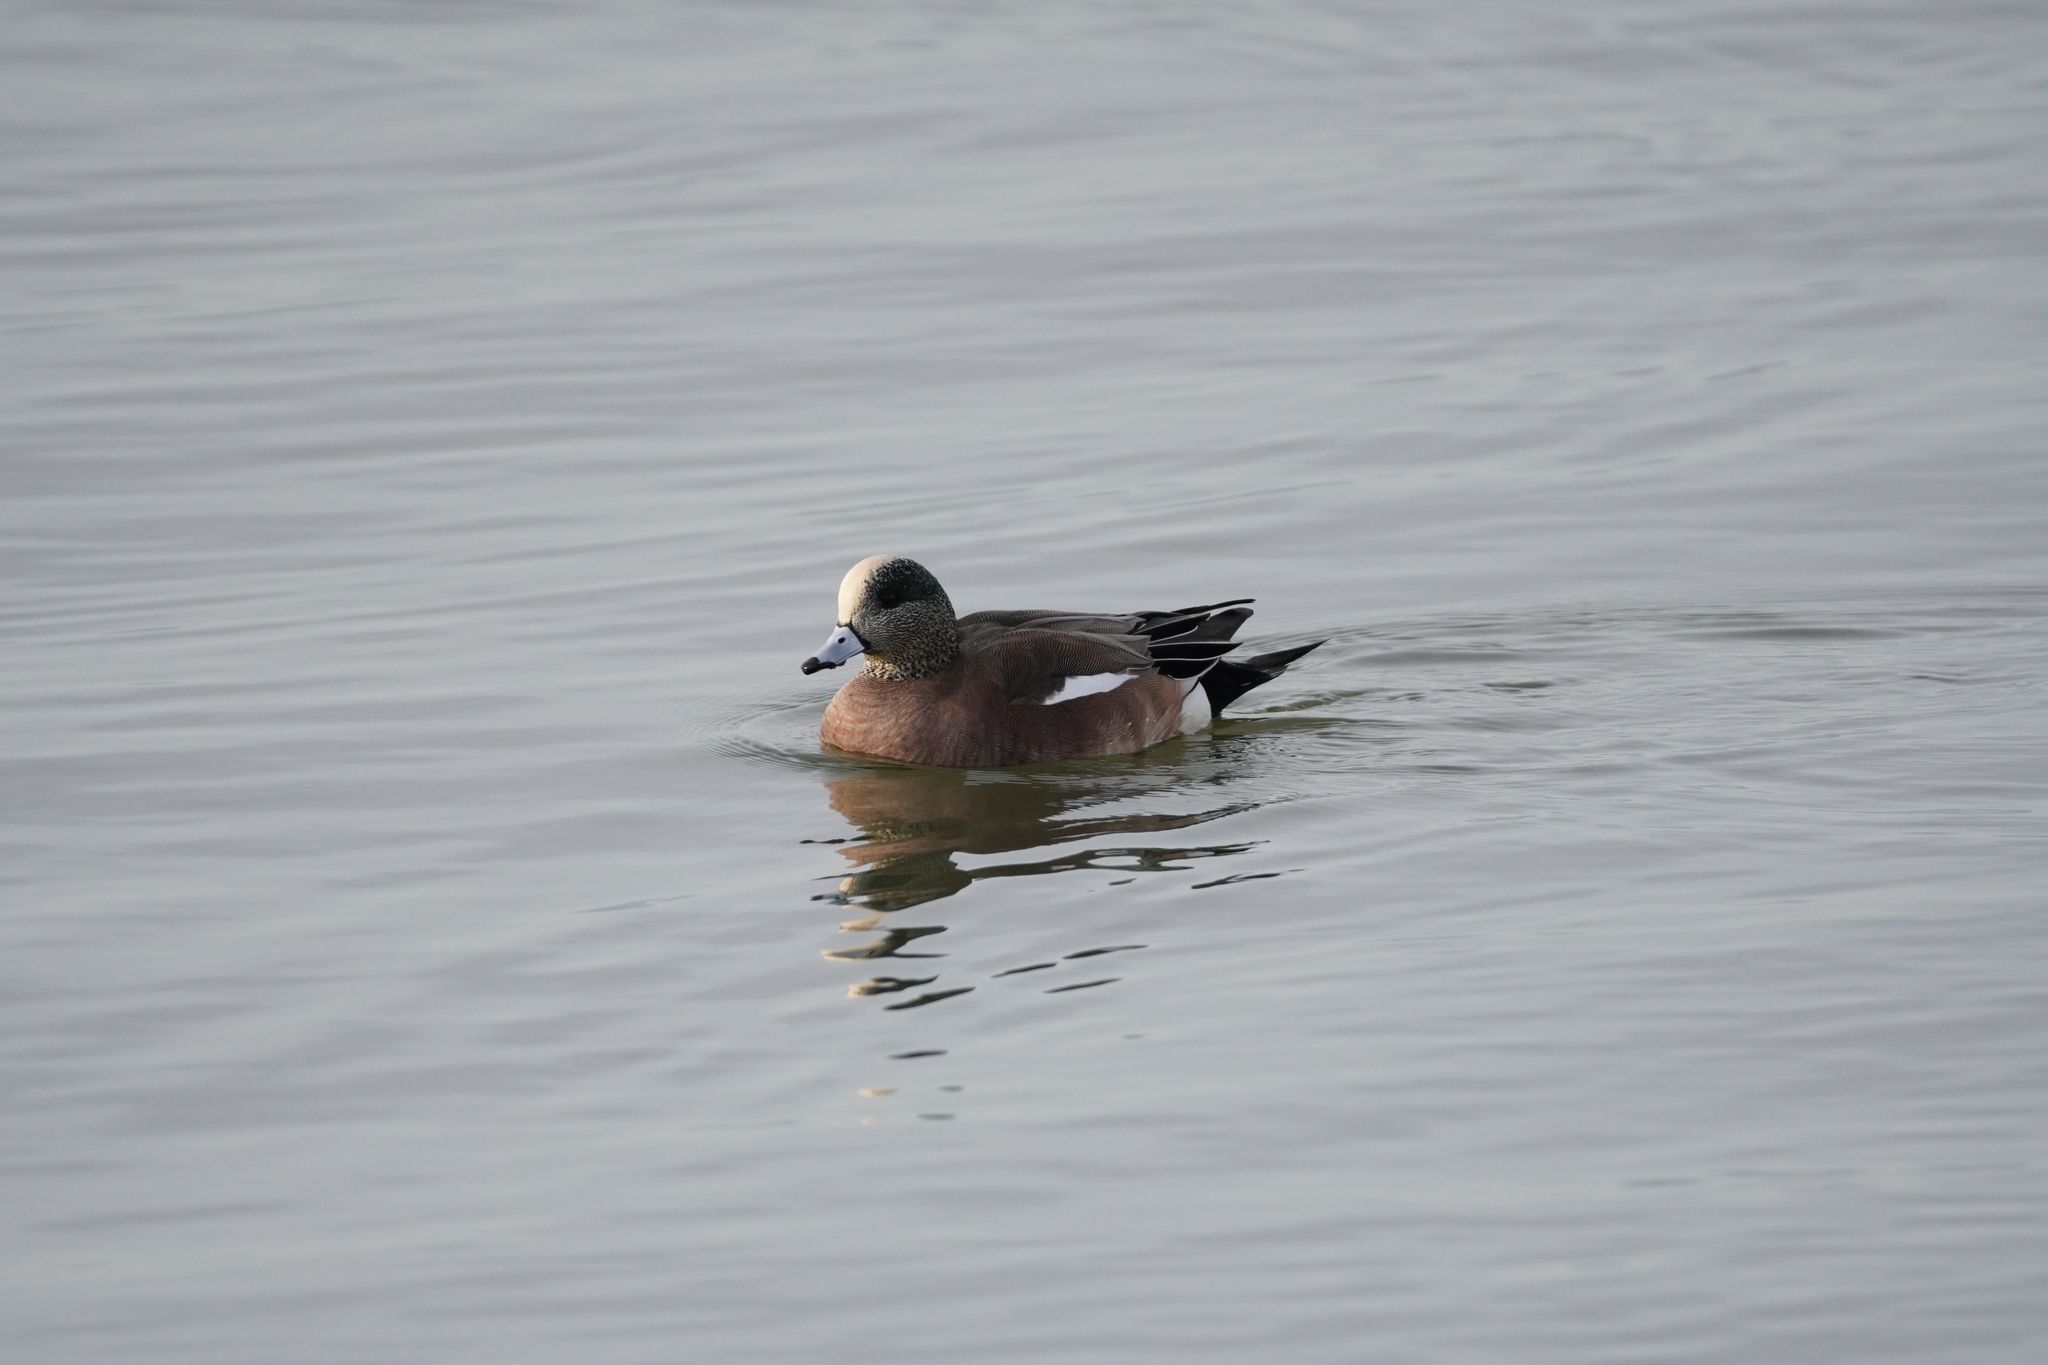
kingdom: Animalia
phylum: Chordata
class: Aves
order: Anseriformes
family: Anatidae
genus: Mareca
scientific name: Mareca americana
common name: American wigeon
